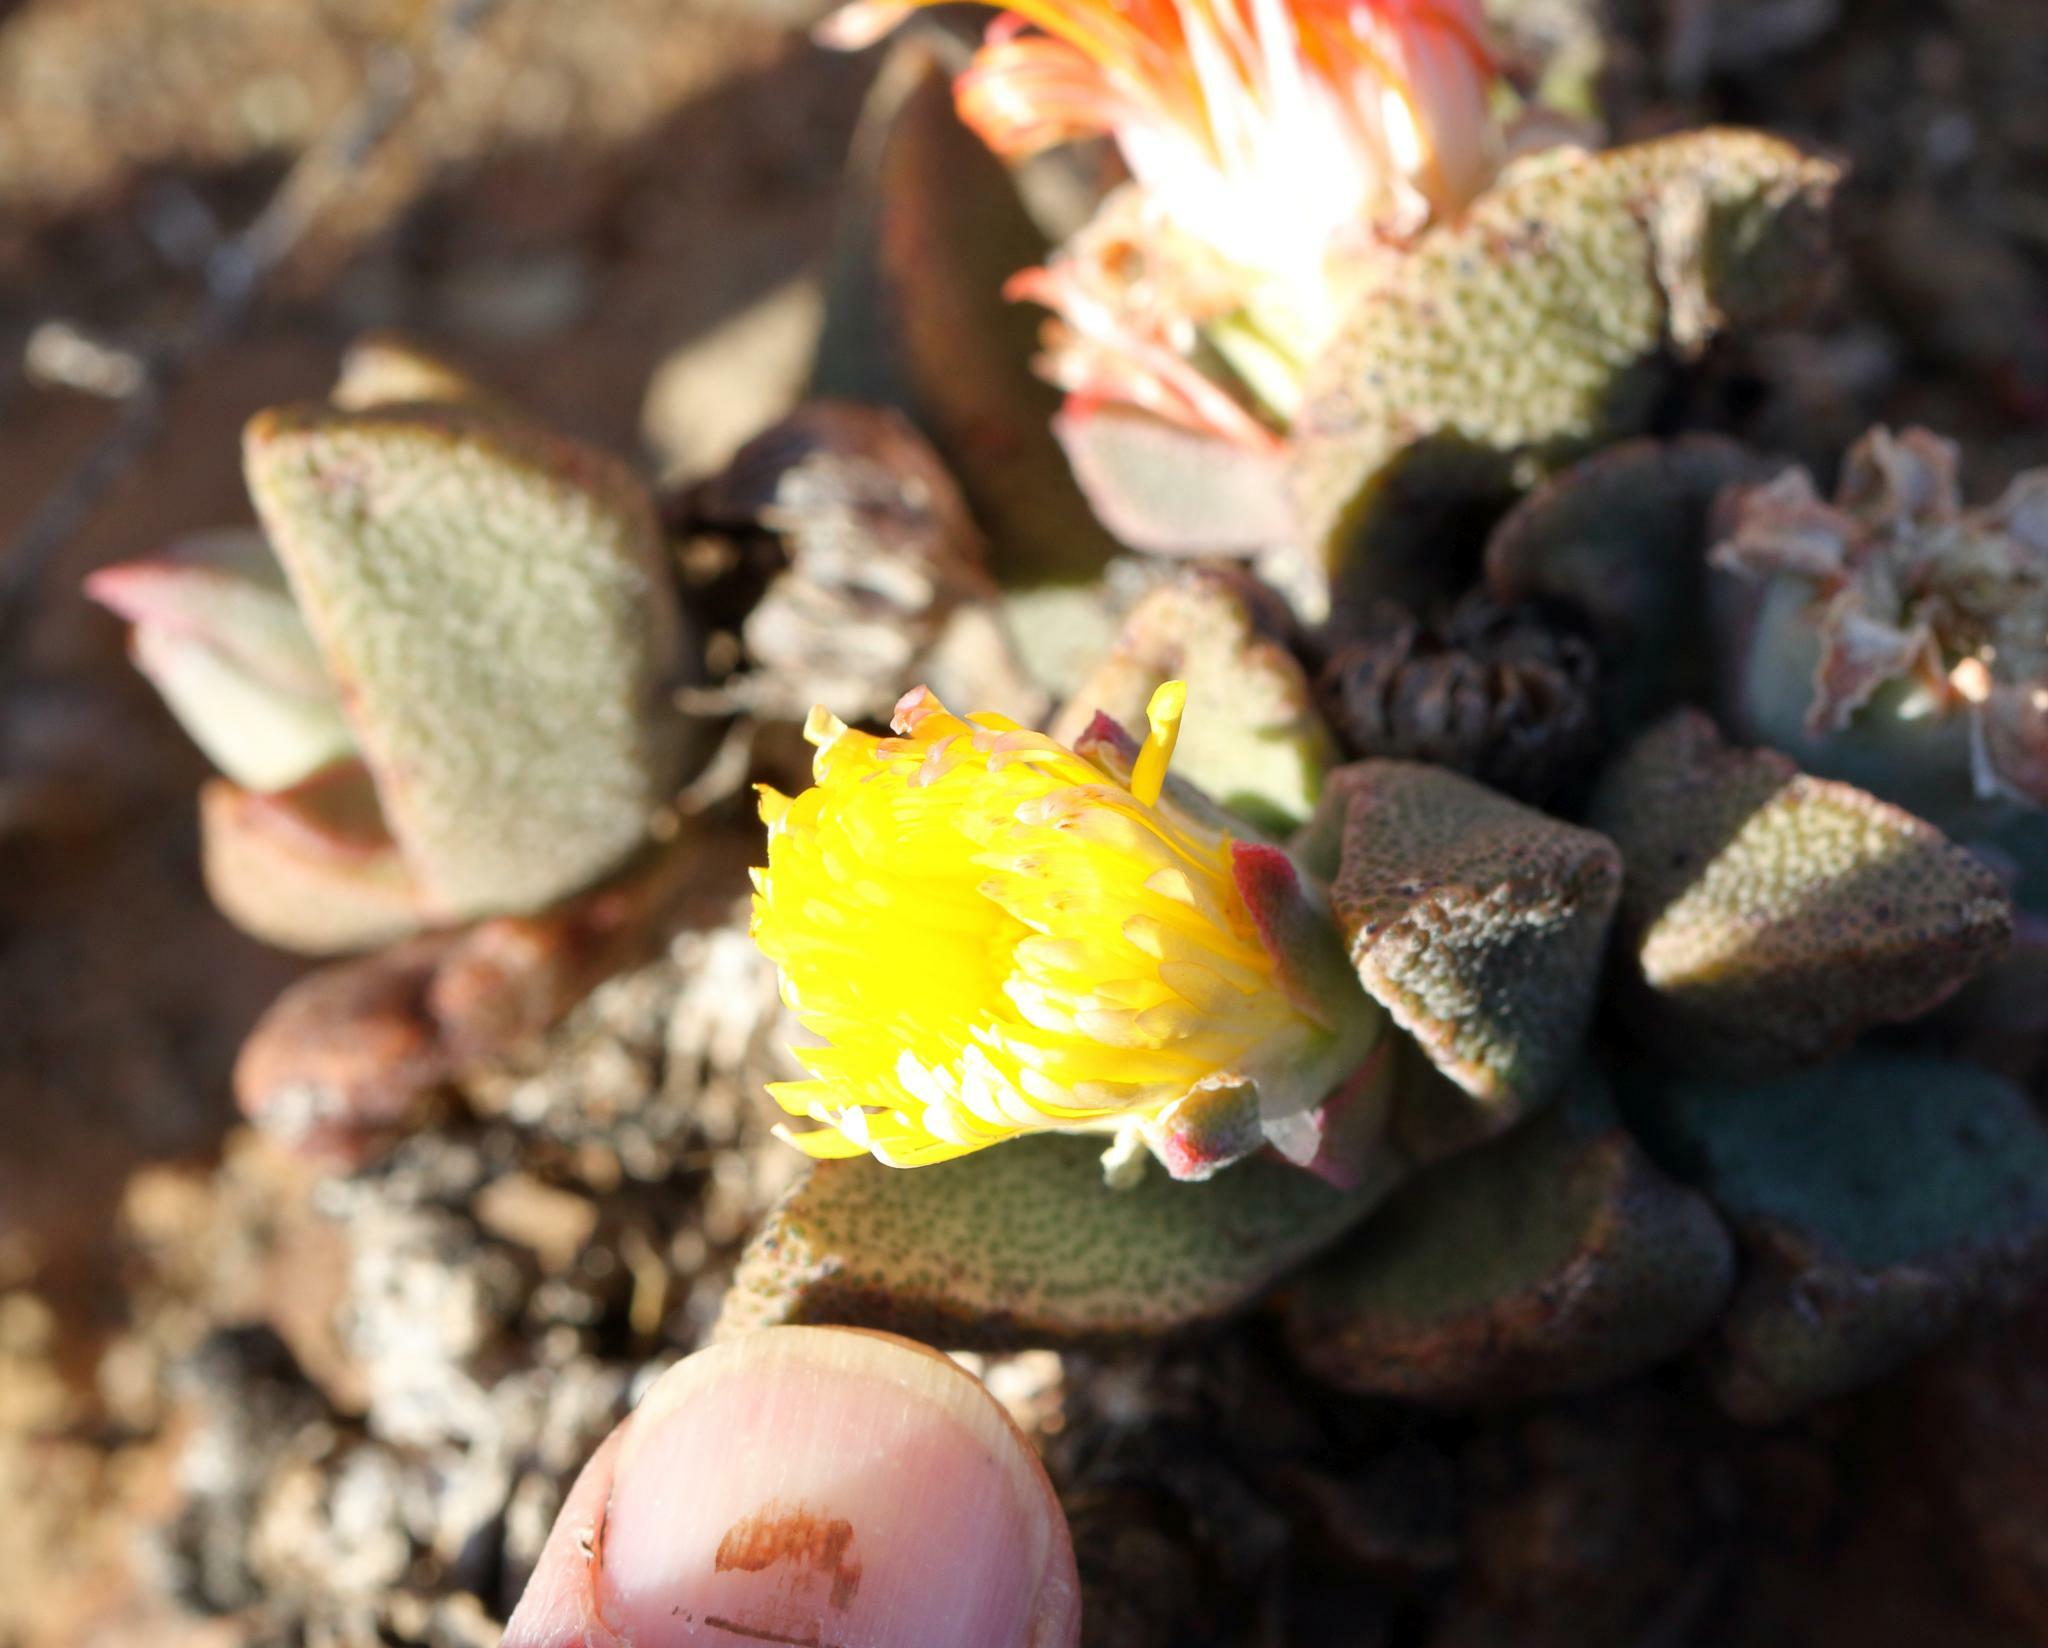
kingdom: Plantae
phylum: Tracheophyta
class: Magnoliopsida
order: Caryophyllales
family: Aizoaceae
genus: Pleiospilos
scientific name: Pleiospilos compactus
